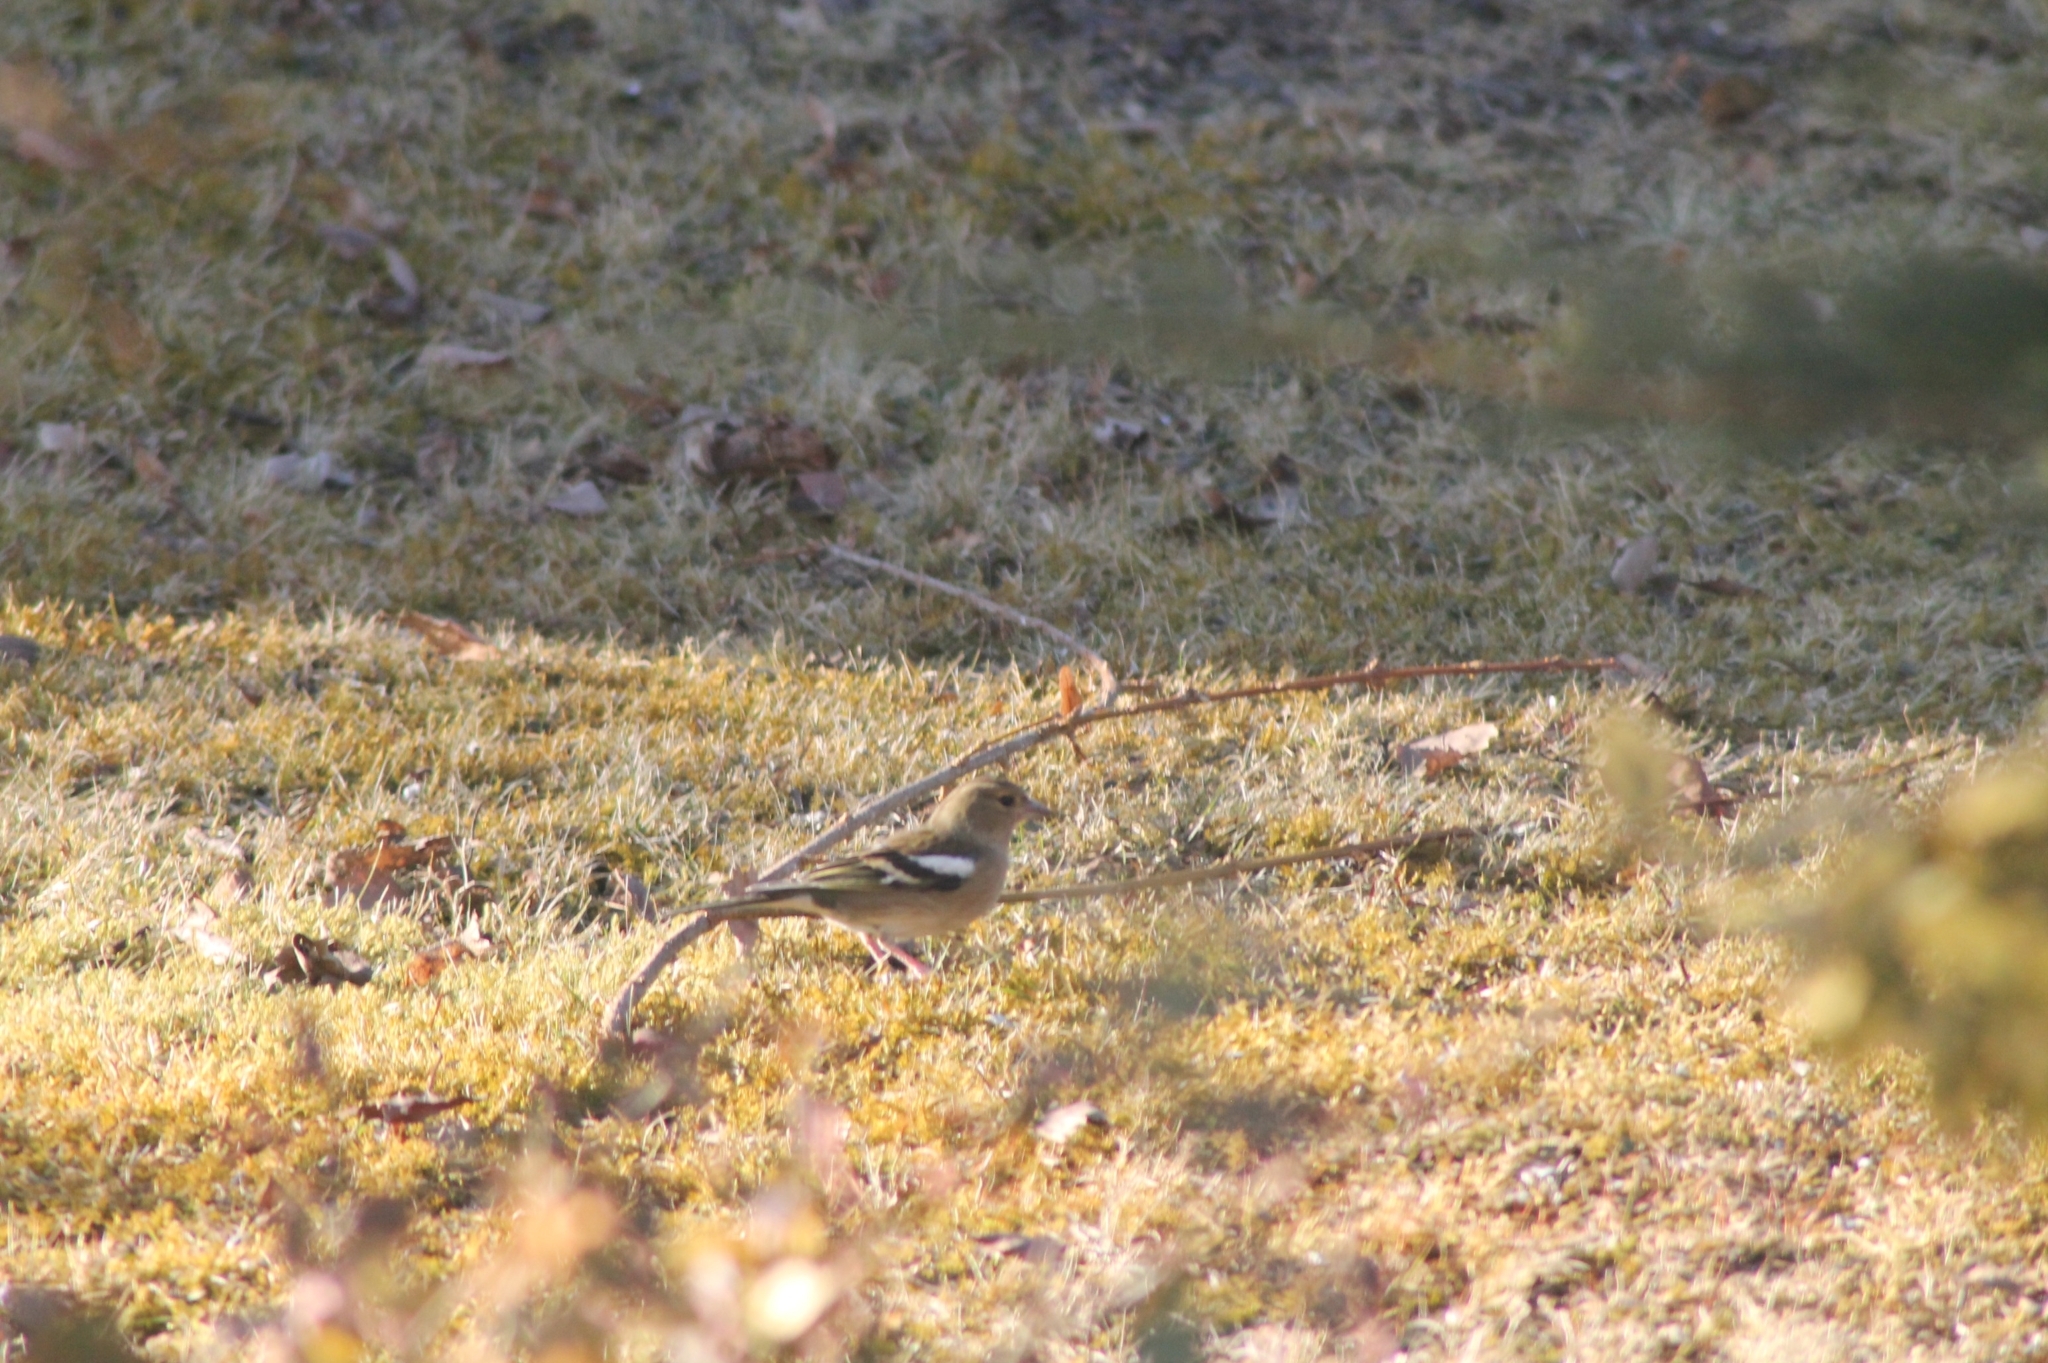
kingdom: Animalia
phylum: Chordata
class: Aves
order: Passeriformes
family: Fringillidae
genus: Fringilla
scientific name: Fringilla coelebs
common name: Common chaffinch
